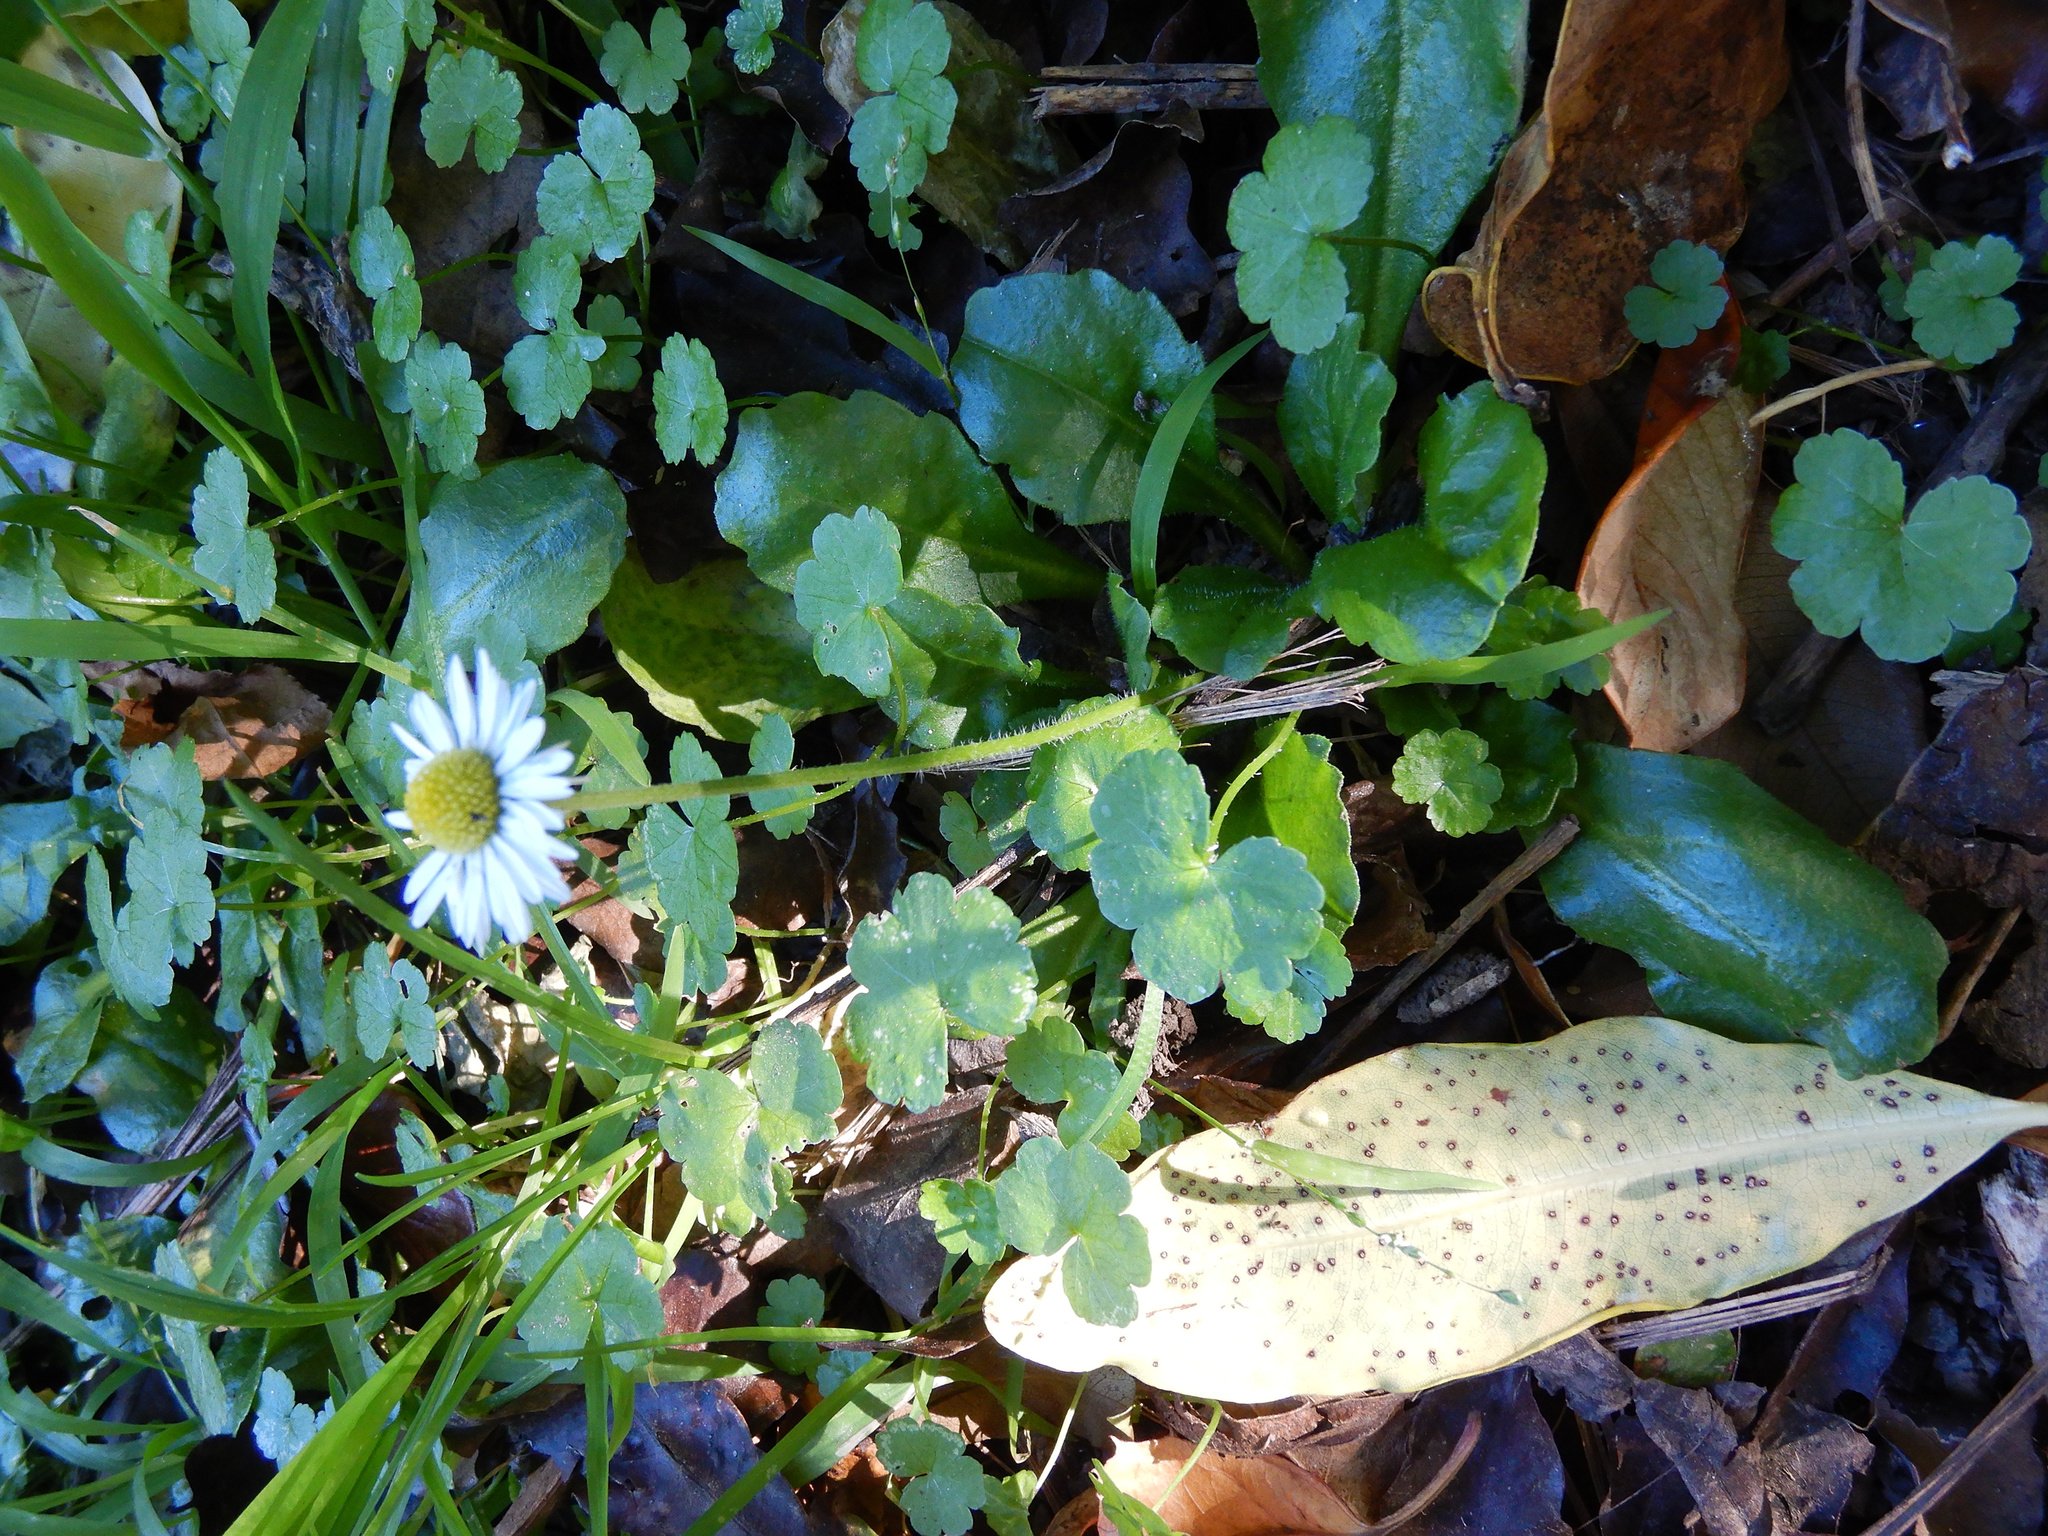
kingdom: Plantae
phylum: Tracheophyta
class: Magnoliopsida
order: Asterales
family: Asteraceae
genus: Bellis
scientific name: Bellis perennis
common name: Lawndaisy
